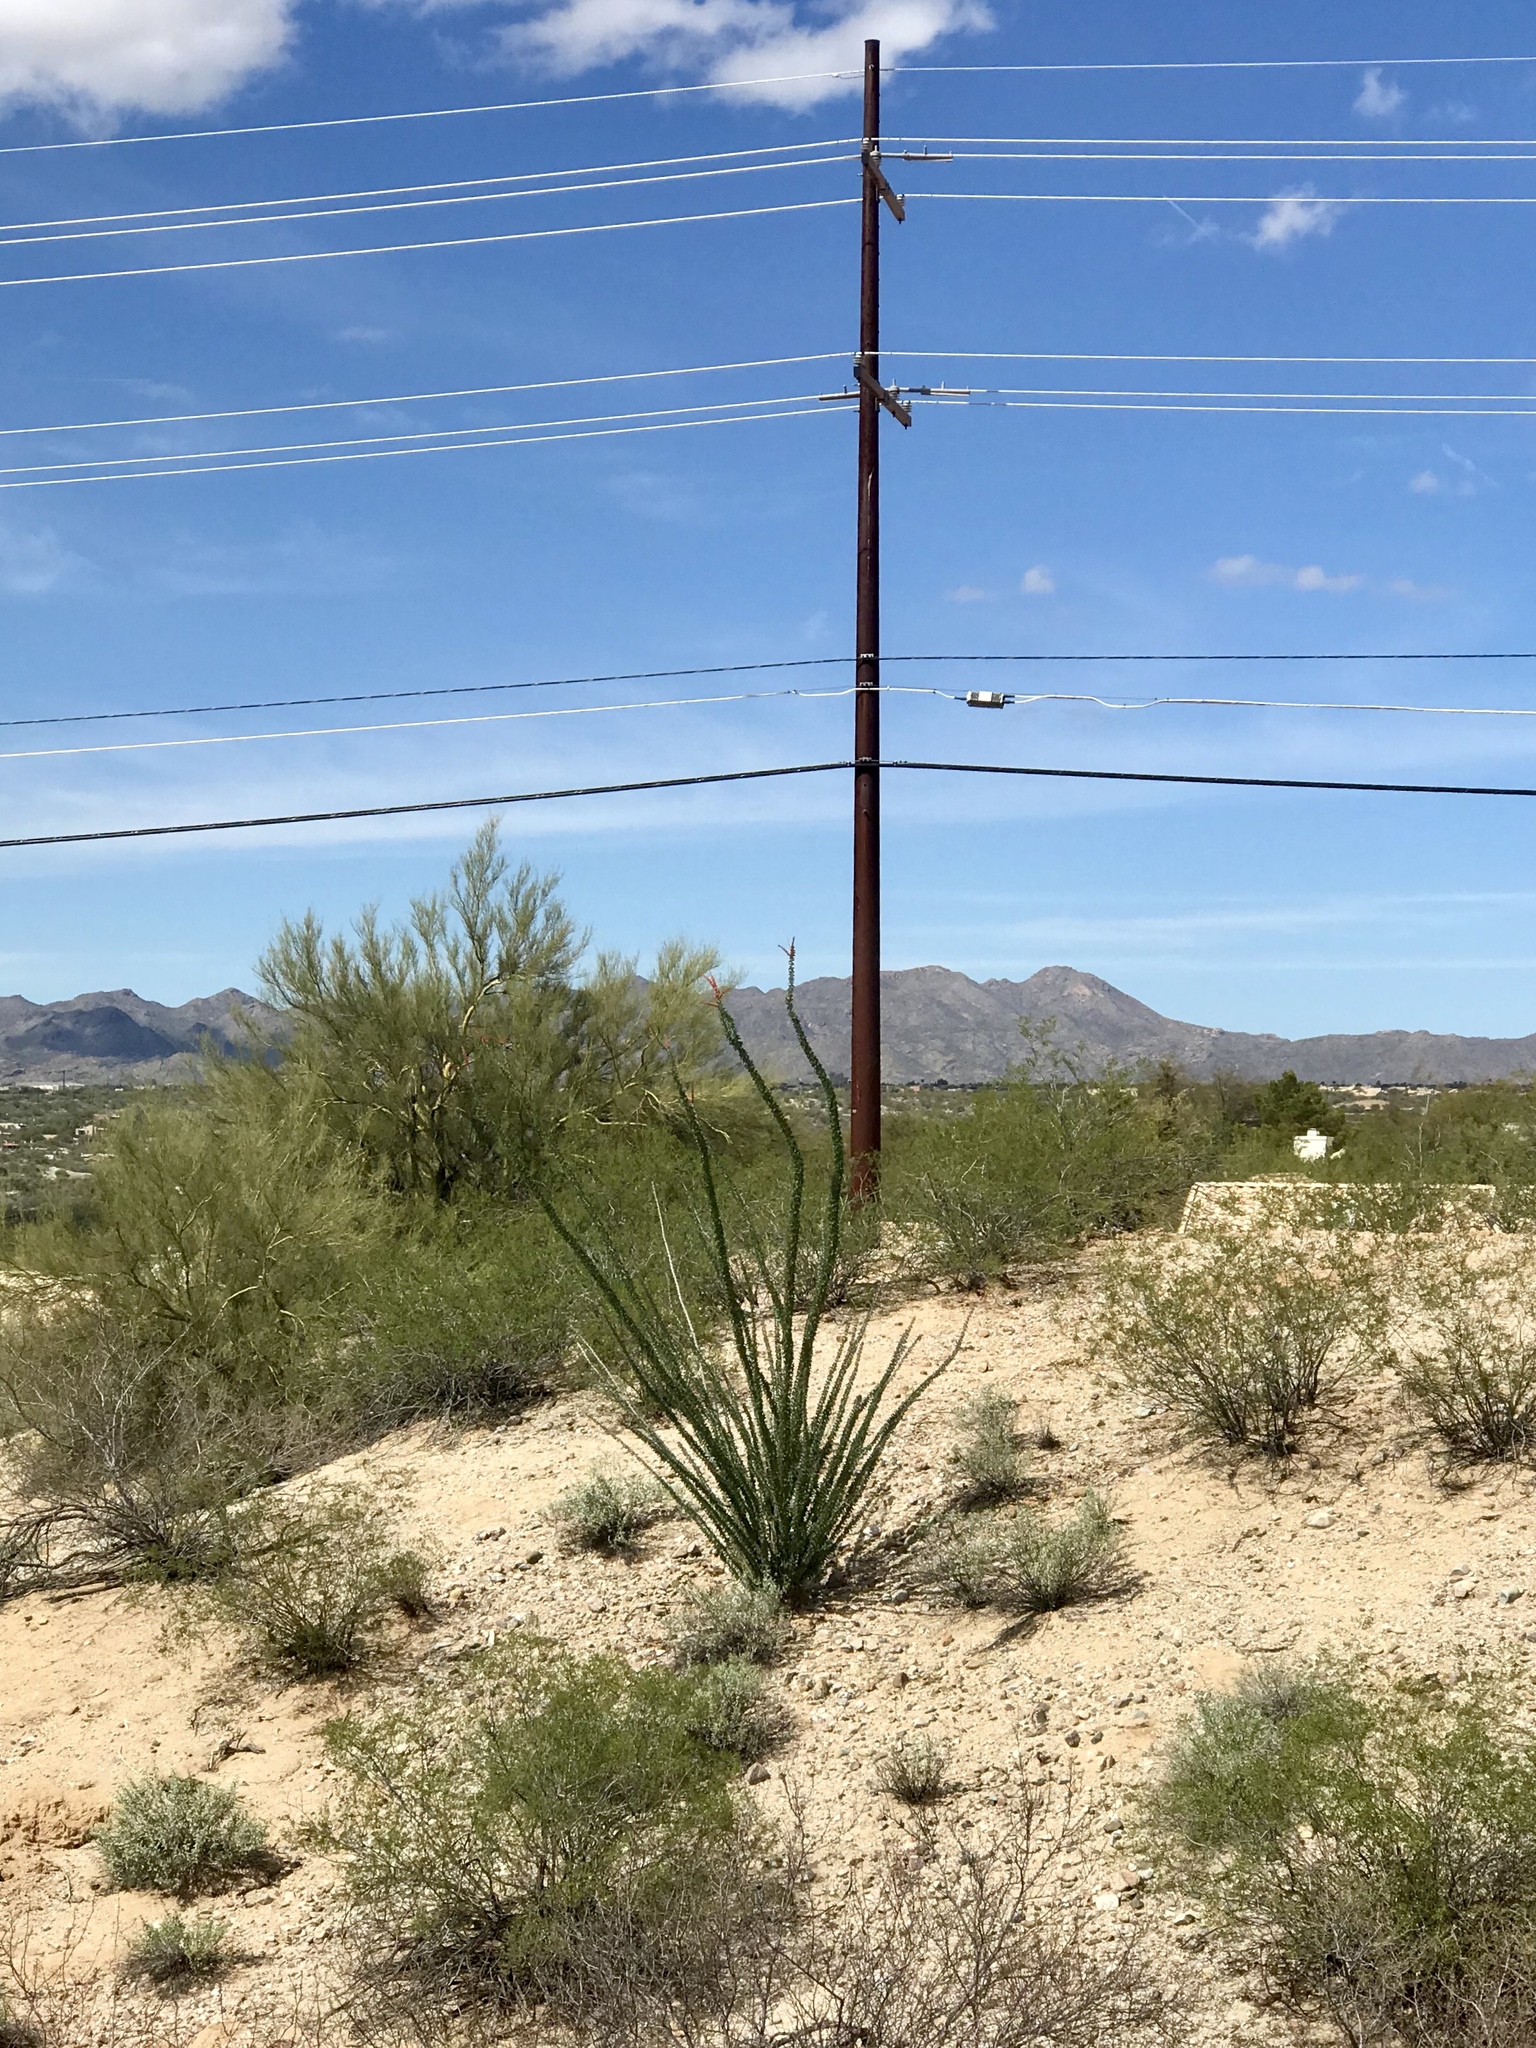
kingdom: Plantae
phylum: Tracheophyta
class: Magnoliopsida
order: Ericales
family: Fouquieriaceae
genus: Fouquieria
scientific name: Fouquieria splendens
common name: Vine-cactus
